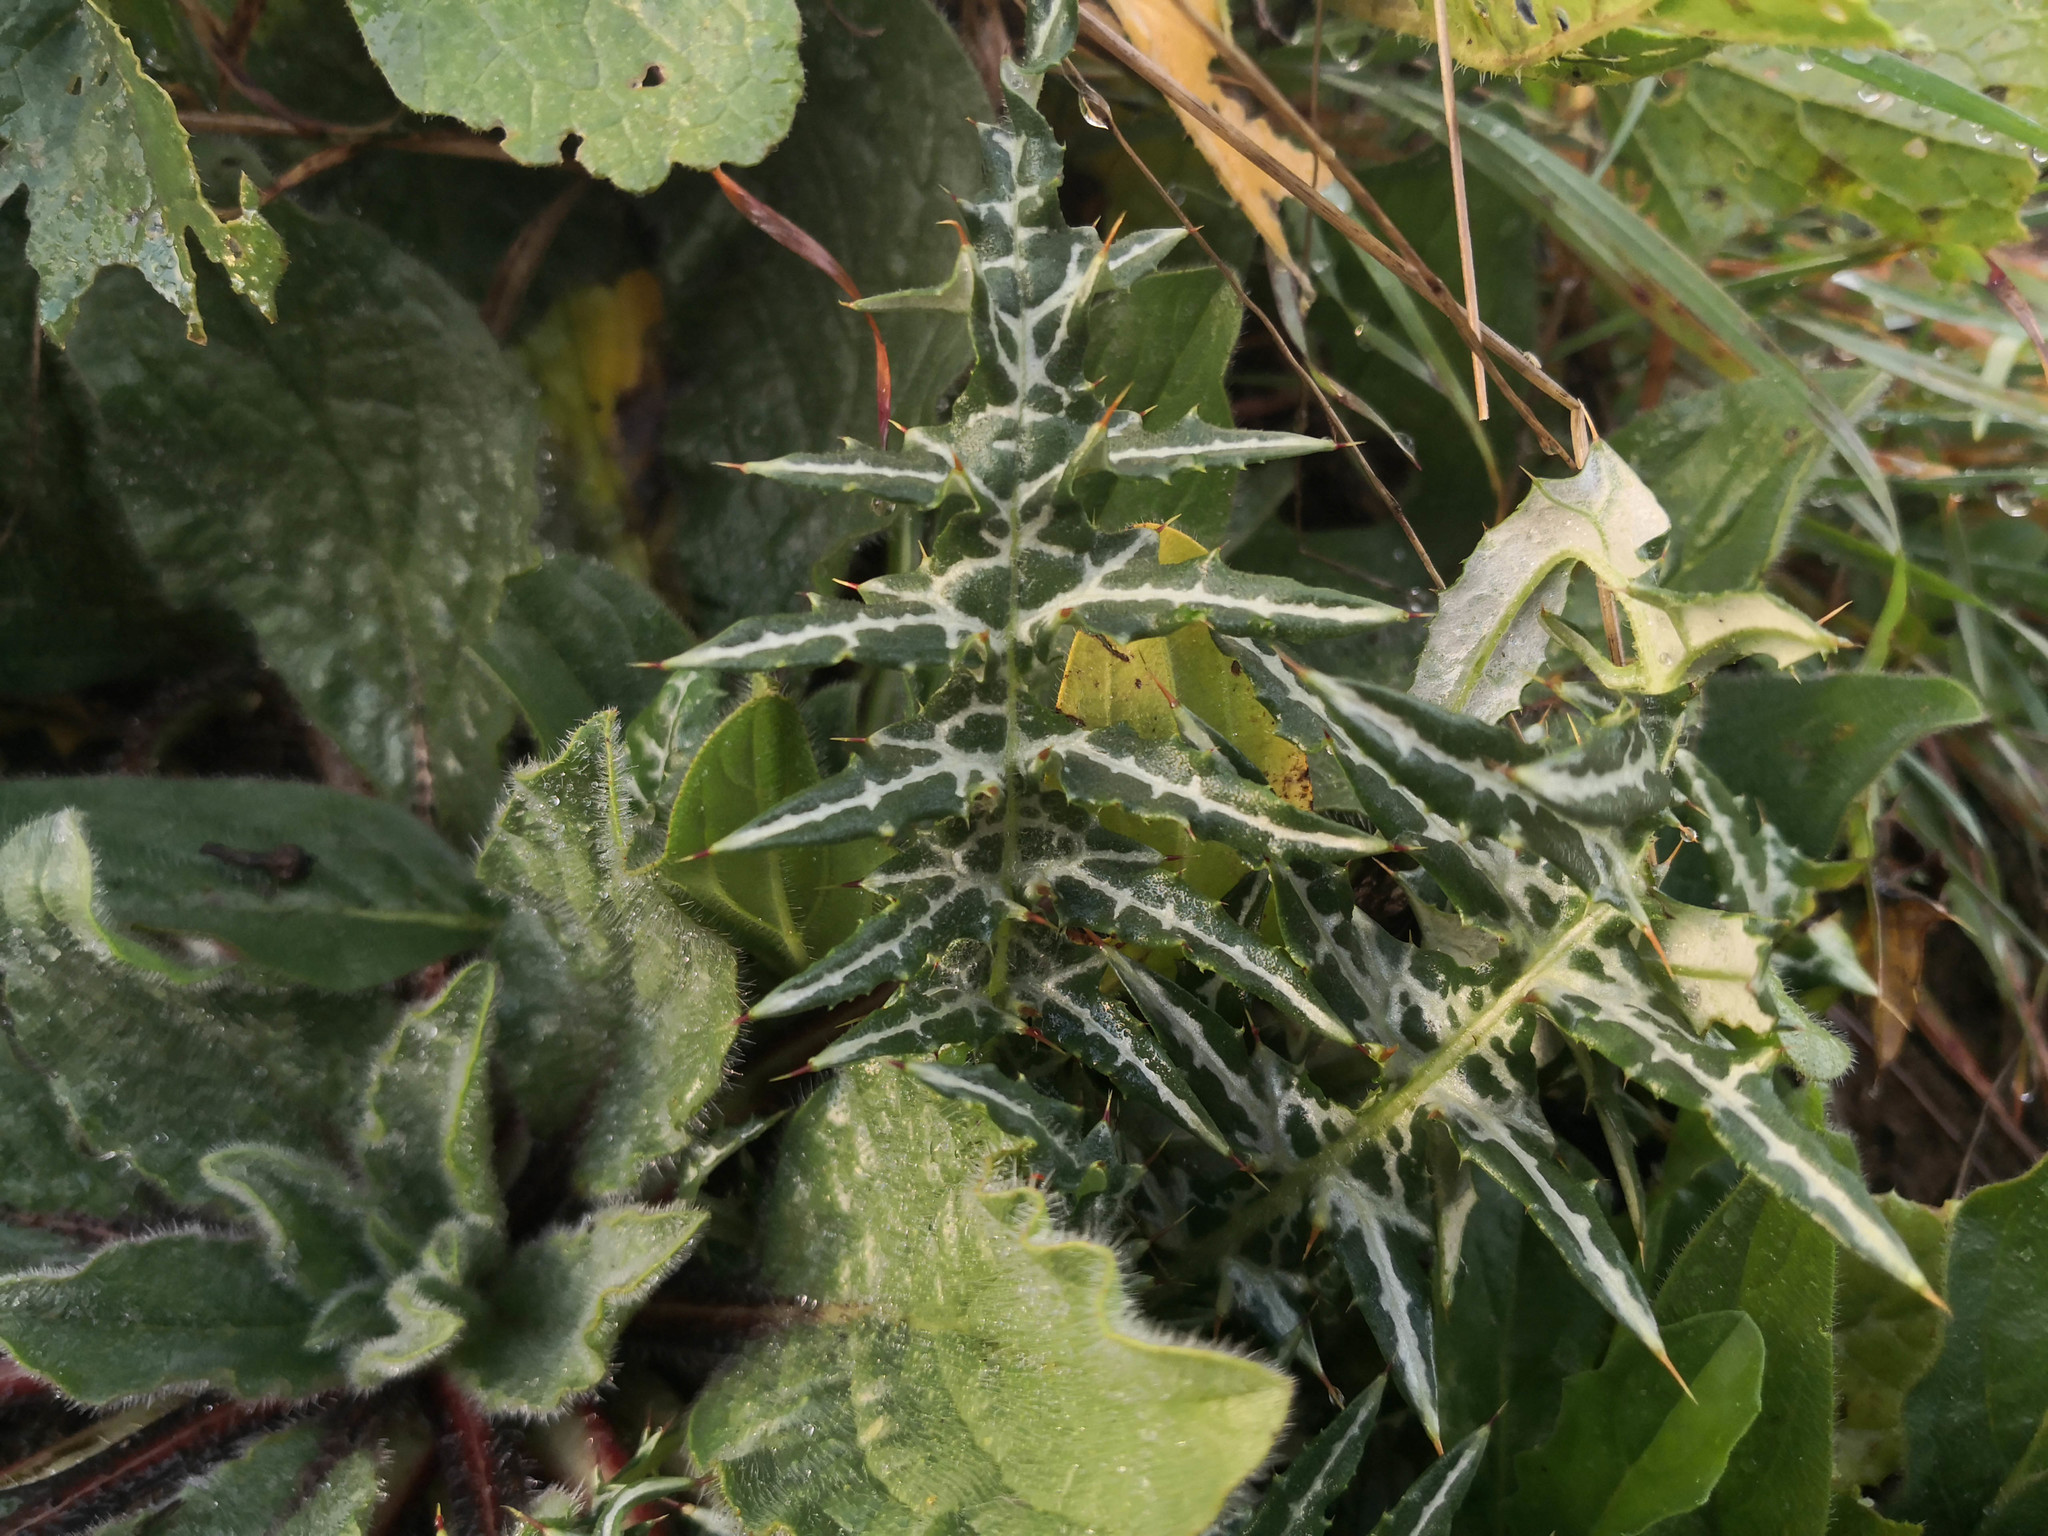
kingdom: Plantae
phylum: Tracheophyta
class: Magnoliopsida
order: Asterales
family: Asteraceae
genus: Galactites
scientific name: Galactites tomentosa
